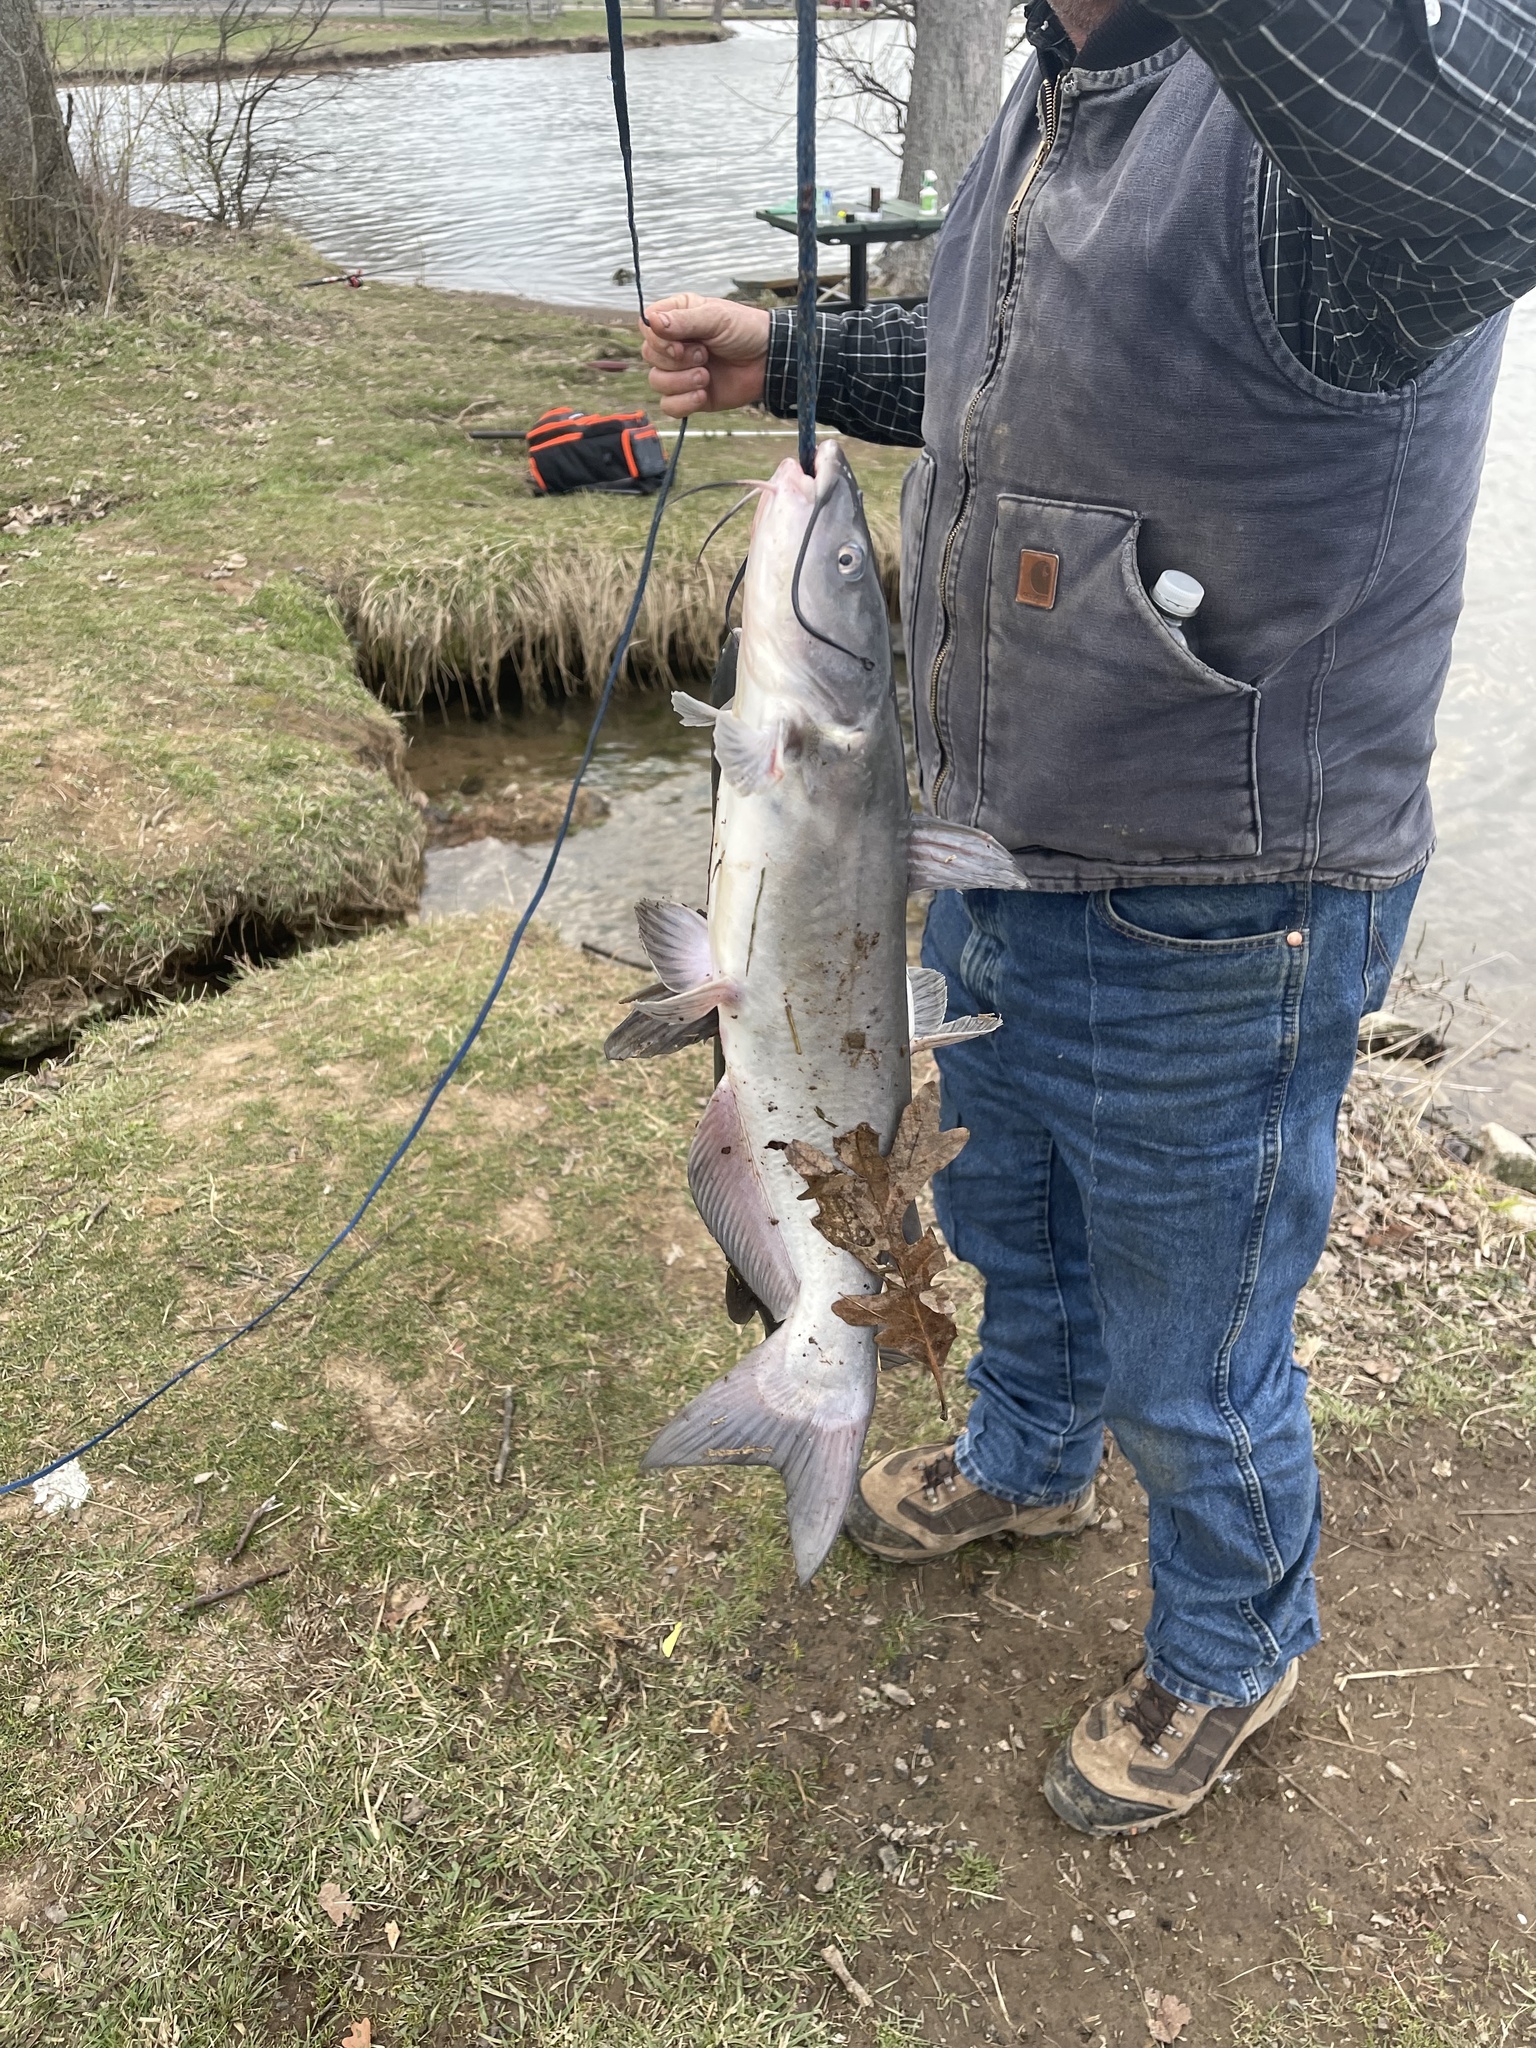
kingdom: Animalia
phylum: Chordata
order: Siluriformes
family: Ictaluridae
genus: Ictalurus
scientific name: Ictalurus punctatus
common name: Channel catfish
